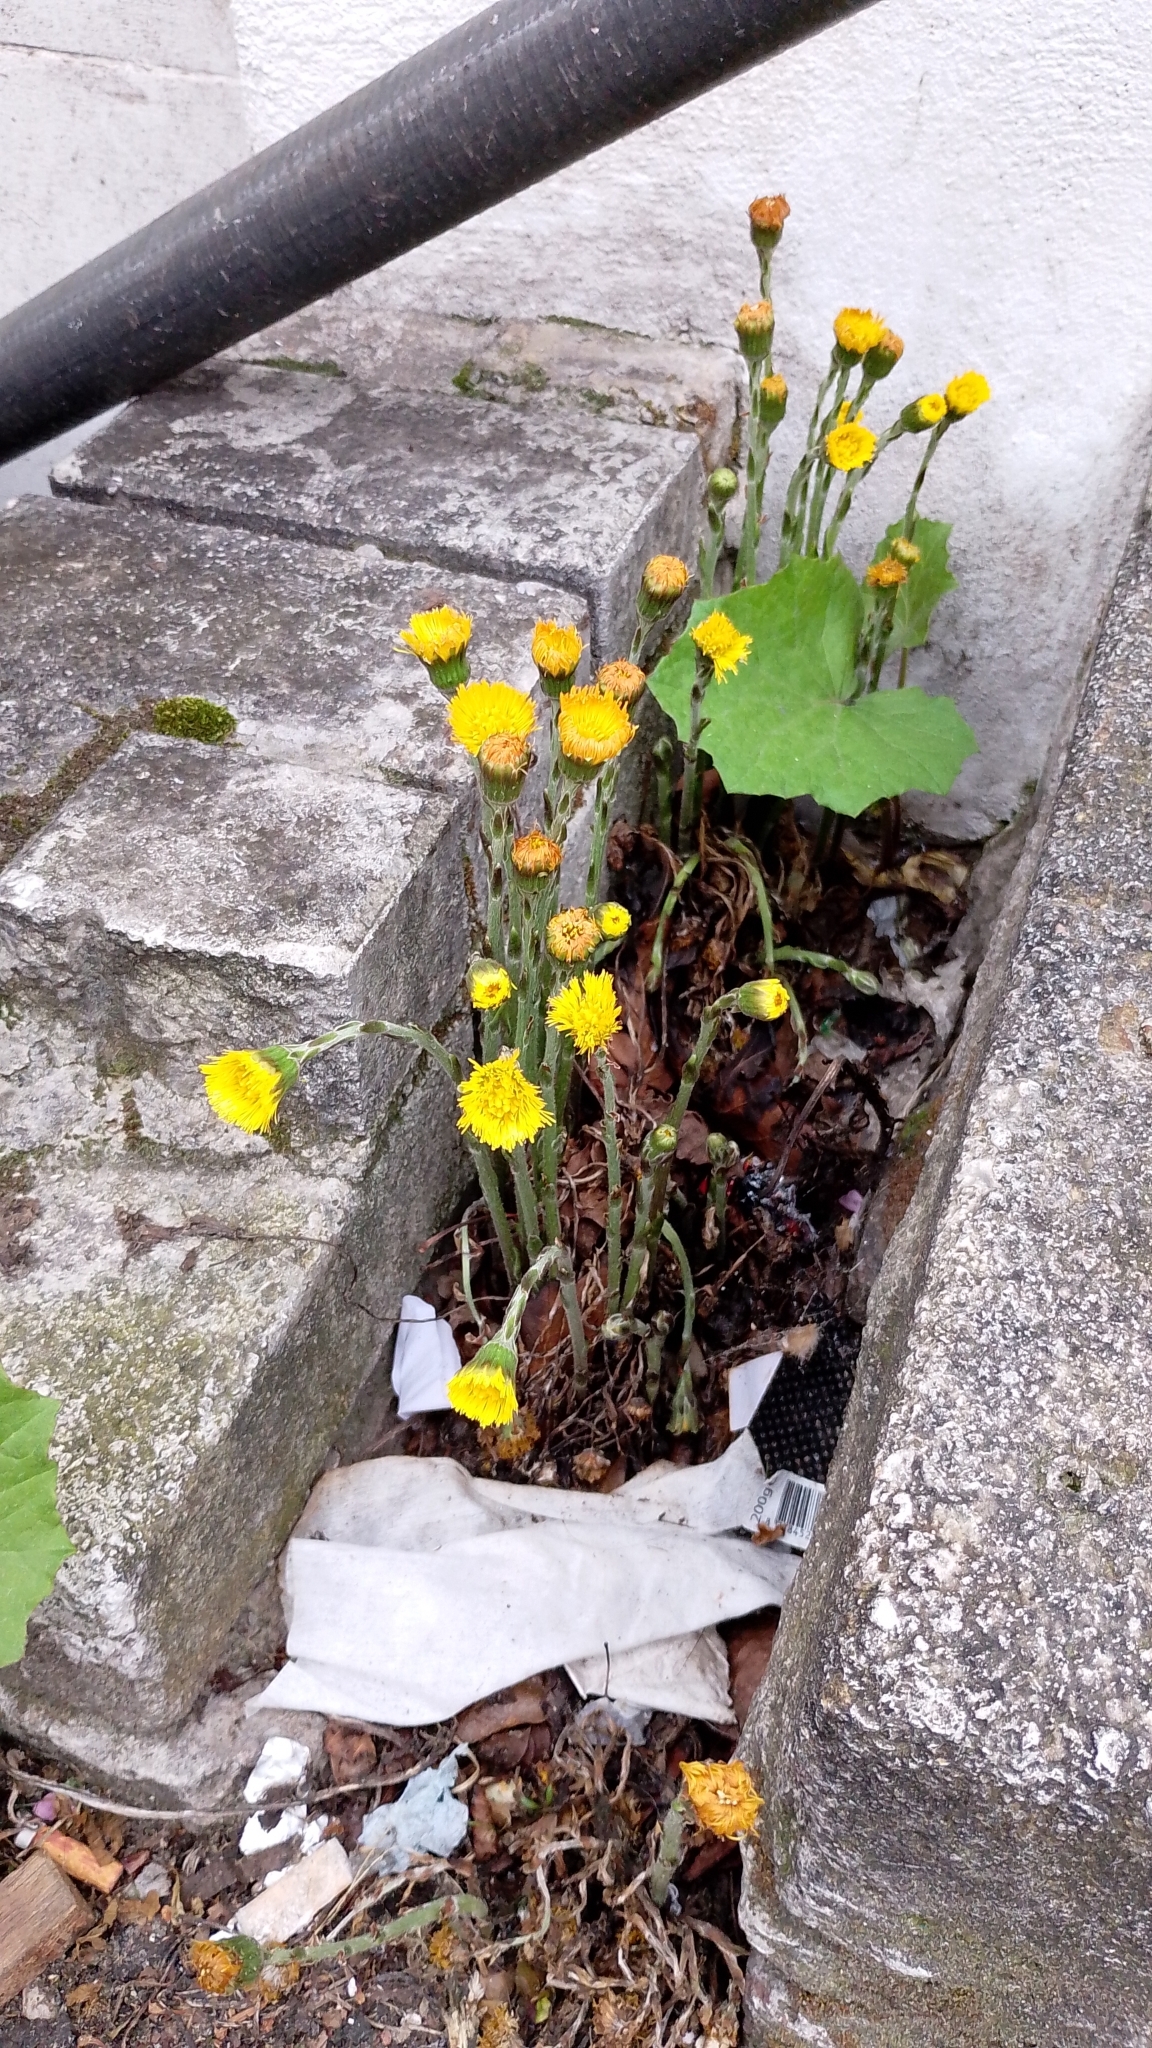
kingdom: Plantae
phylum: Tracheophyta
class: Magnoliopsida
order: Asterales
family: Asteraceae
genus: Tussilago
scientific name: Tussilago farfara
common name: Coltsfoot
